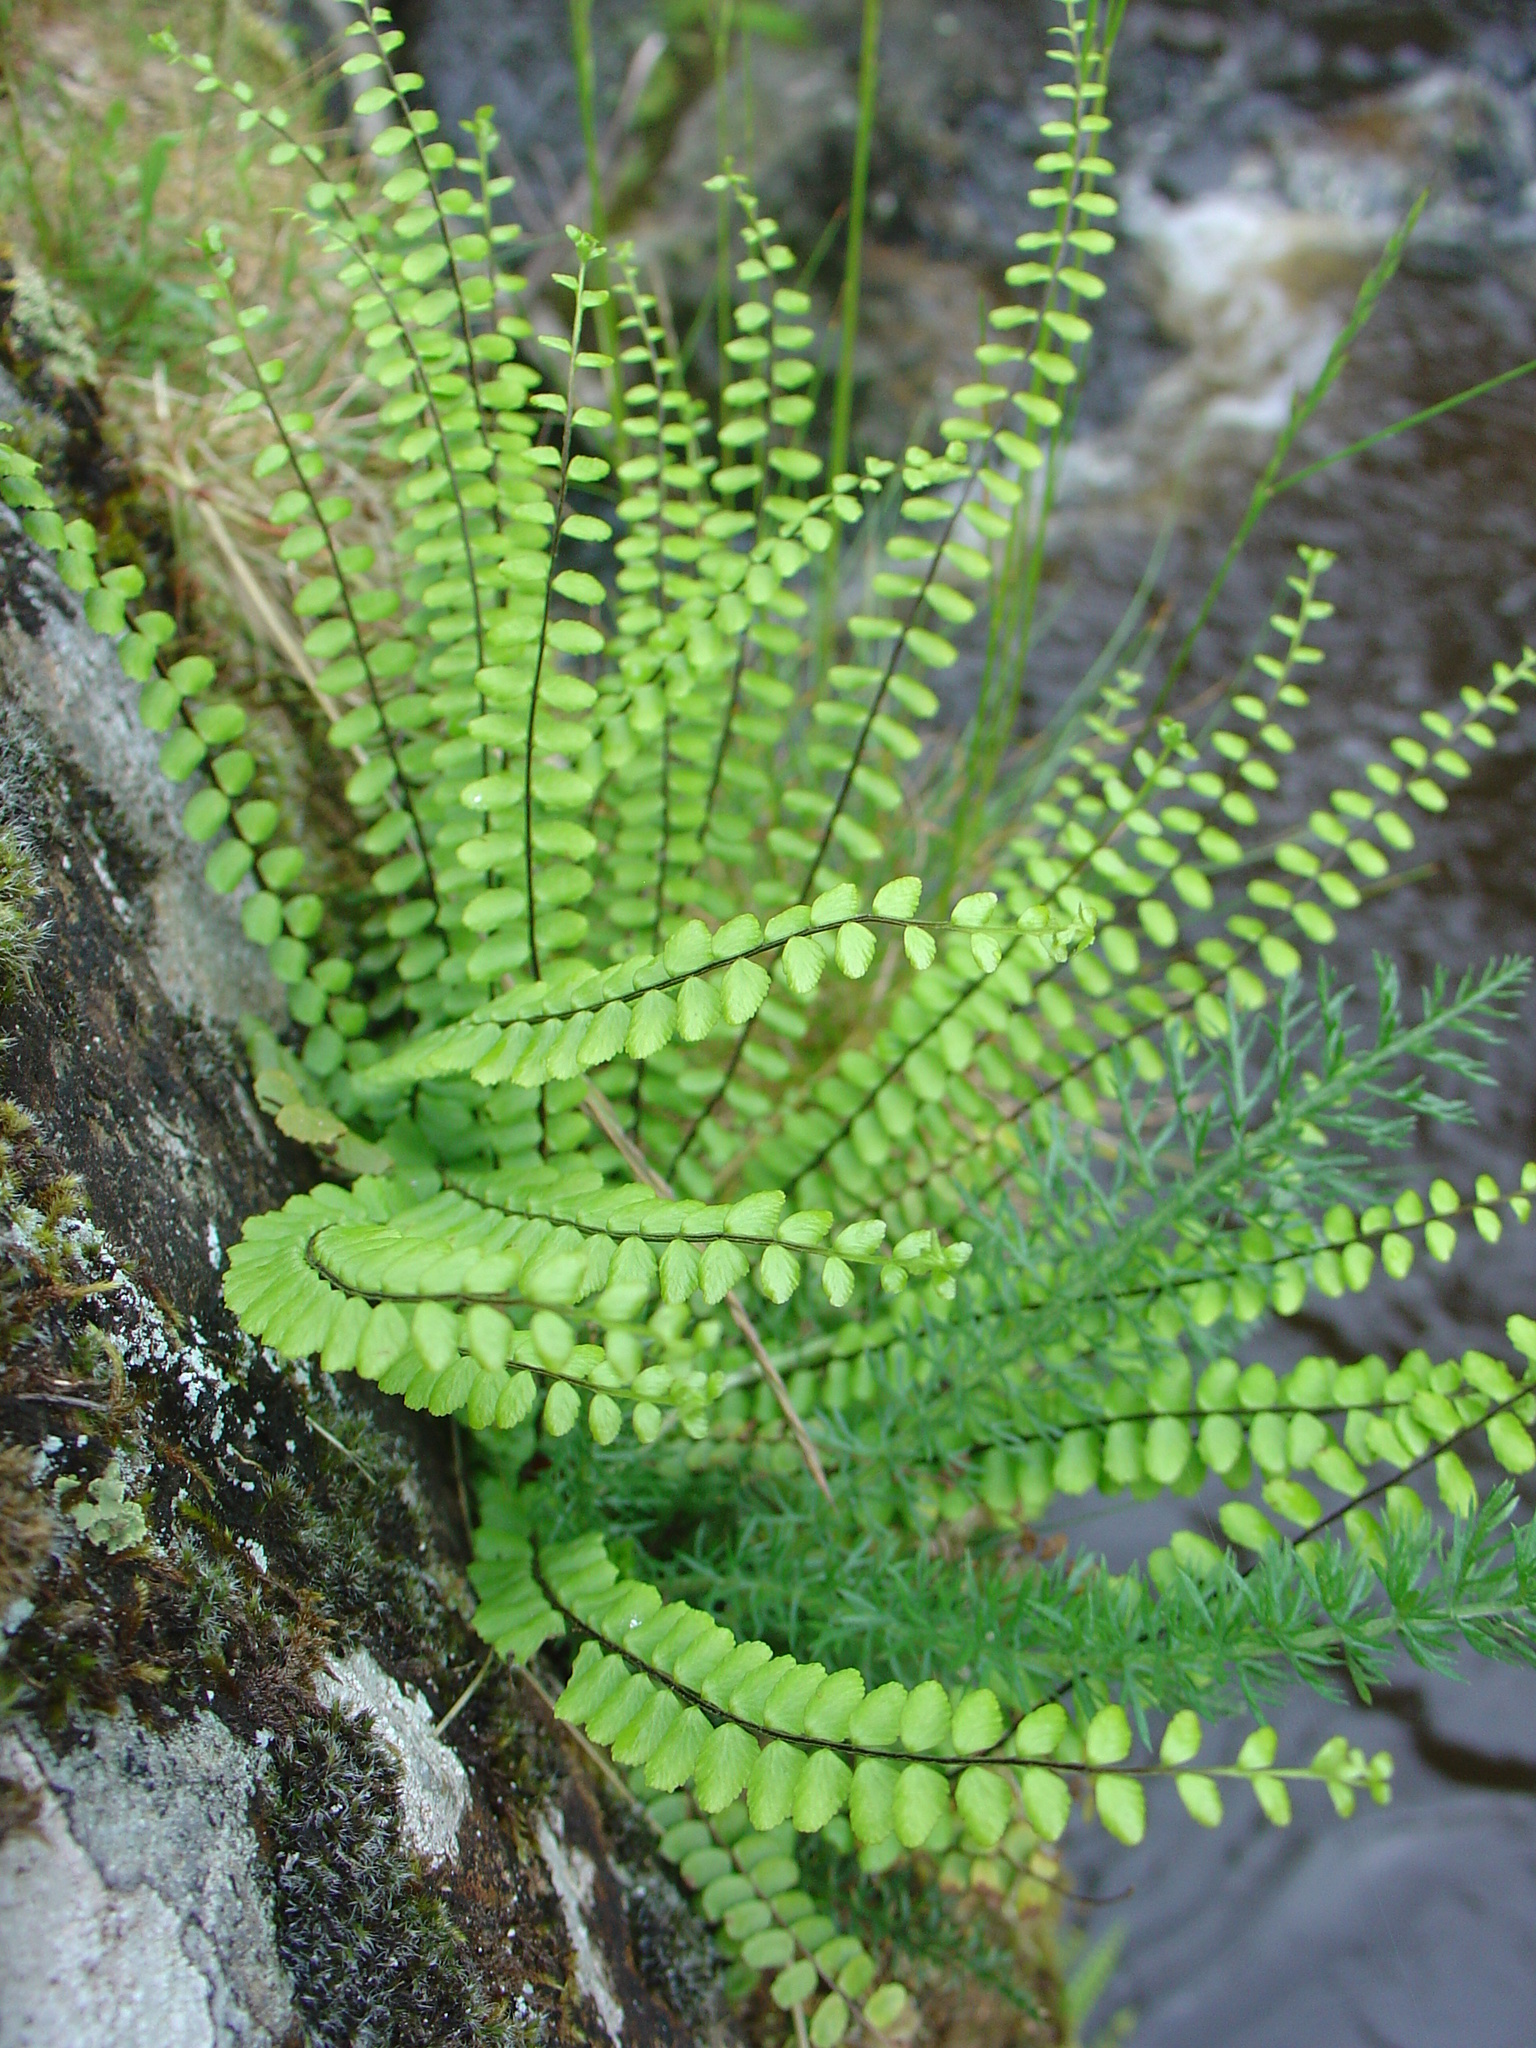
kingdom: Plantae
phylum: Tracheophyta
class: Polypodiopsida
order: Polypodiales
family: Aspleniaceae
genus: Asplenium
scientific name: Asplenium trichomanes
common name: Maidenhair spleenwort
